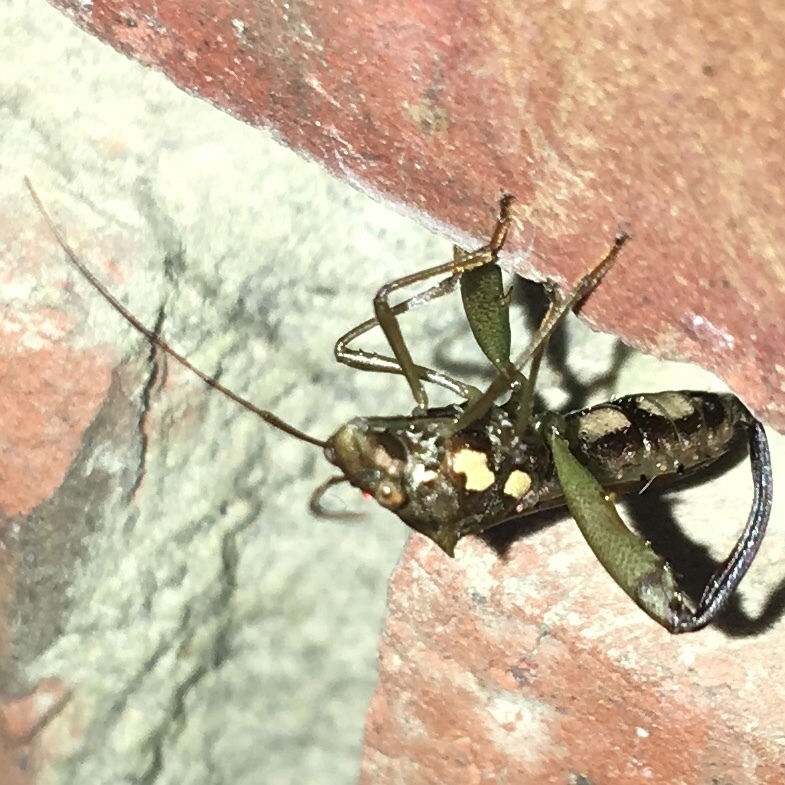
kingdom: Animalia
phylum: Arthropoda
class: Insecta
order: Hemiptera
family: Alydidae
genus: Hyalymenus
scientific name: Hyalymenus tarsatus
